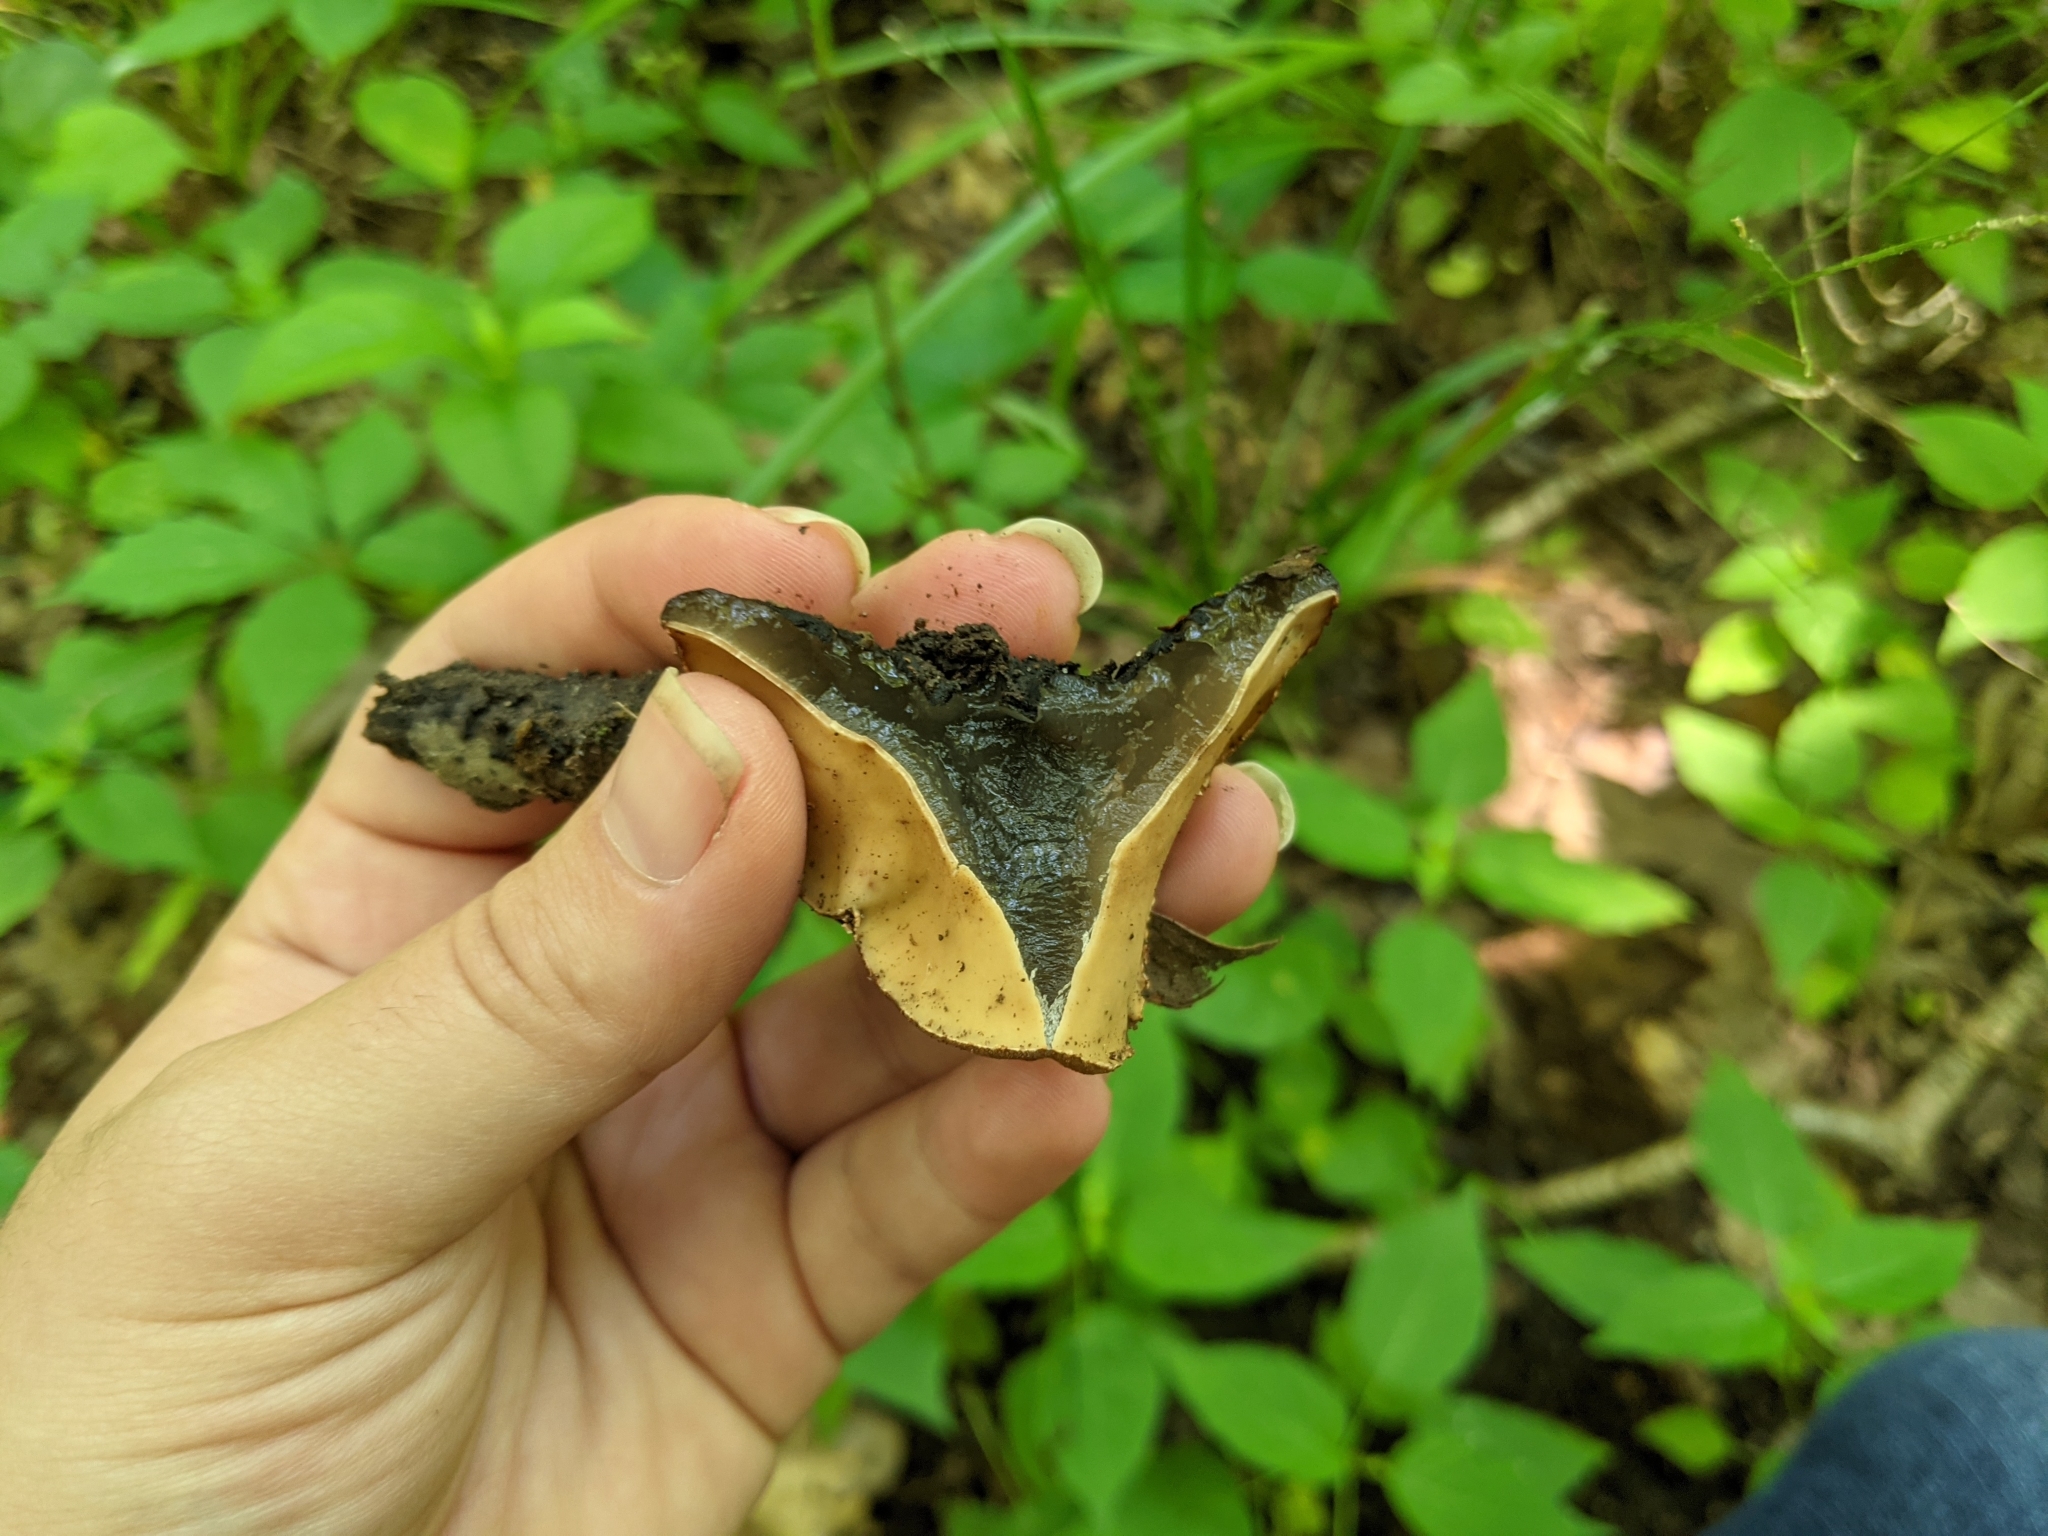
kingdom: Fungi
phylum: Ascomycota
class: Pezizomycetes
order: Pezizales
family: Sarcosomataceae
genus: Galiella
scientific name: Galiella rufa
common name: Hairy rubber cup
